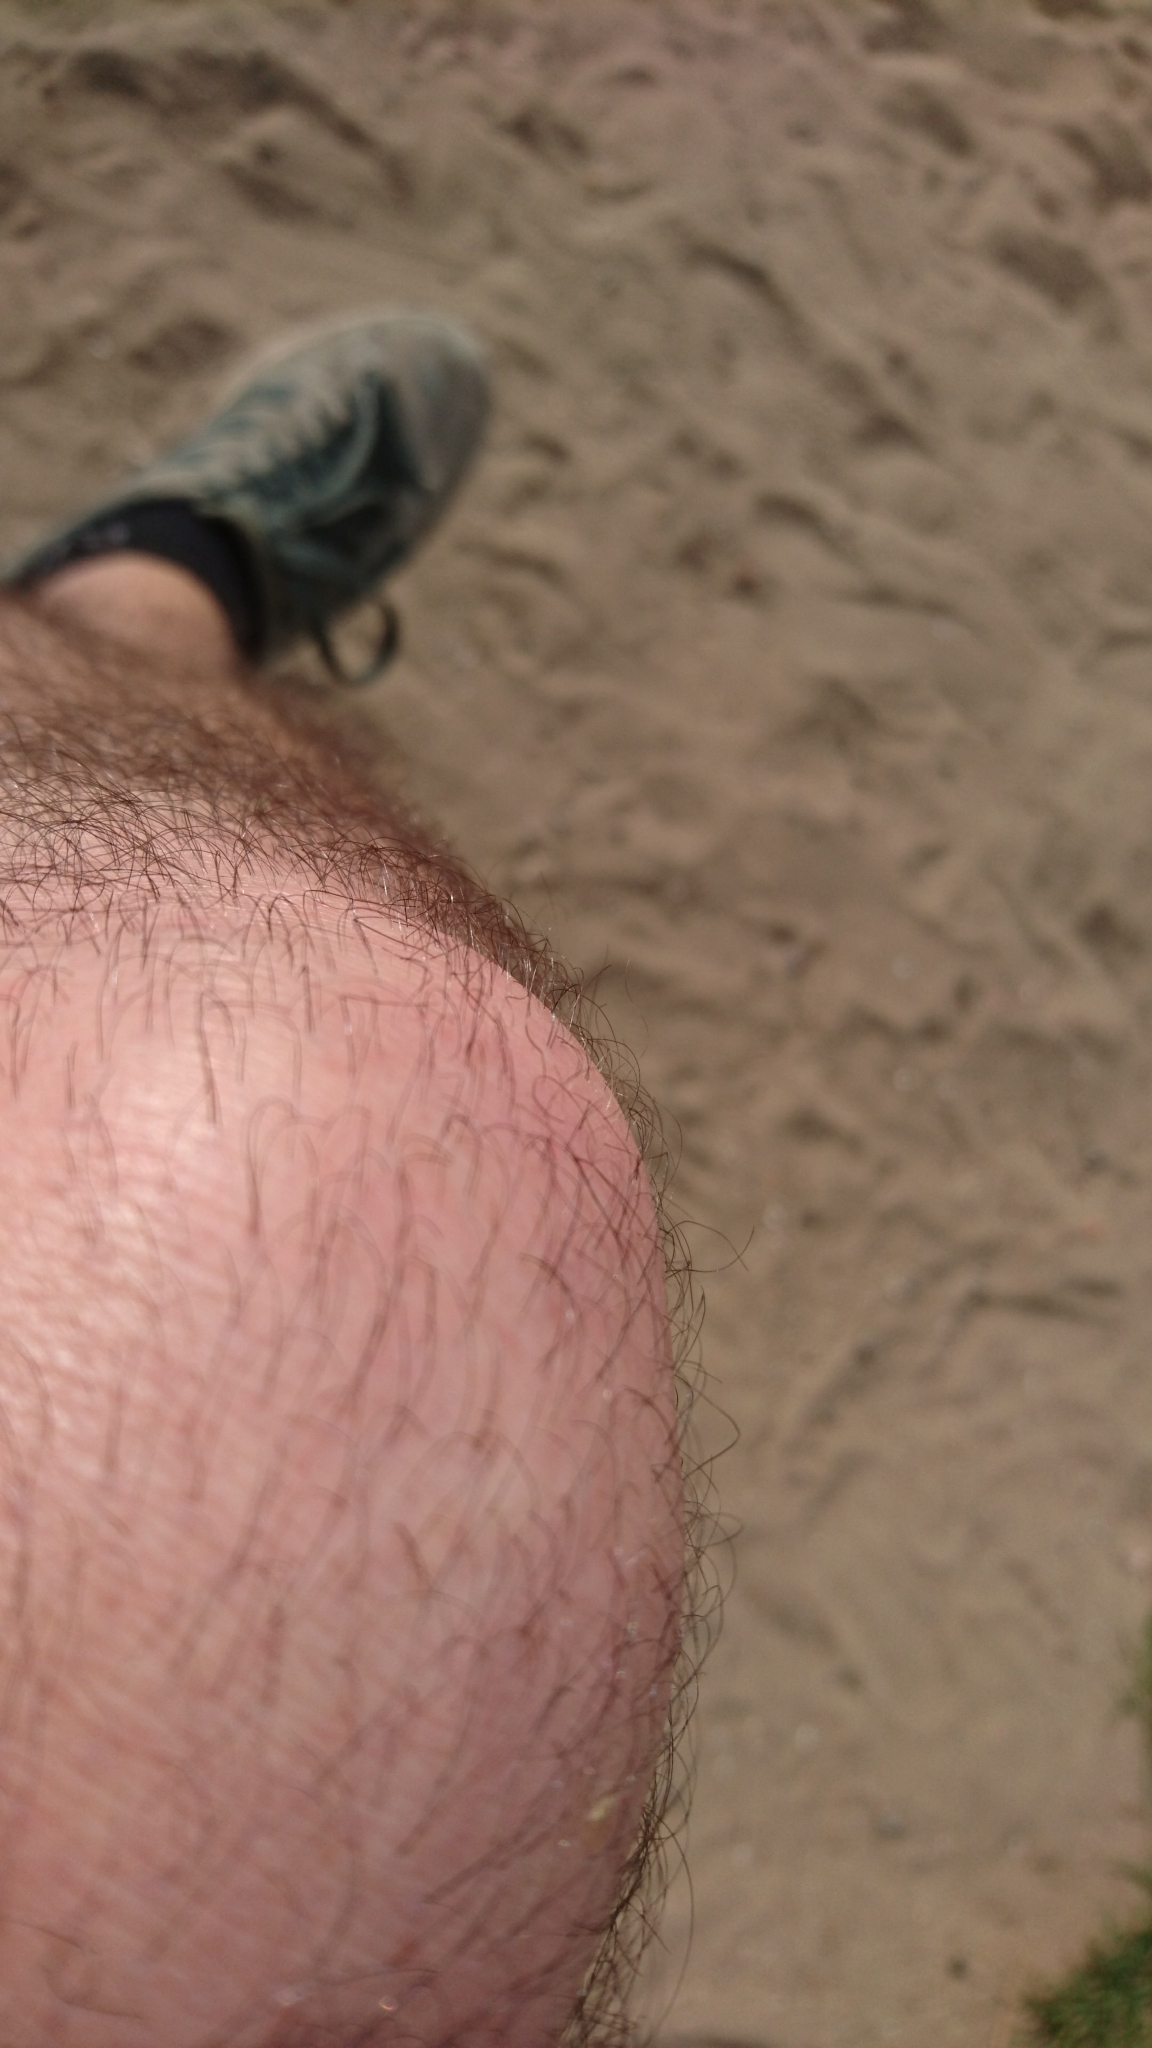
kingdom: Animalia
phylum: Arthropoda
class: Insecta
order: Coleoptera
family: Curculionidae
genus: Phyllobius
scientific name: Phyllobius pyri
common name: Common leaf weevil
